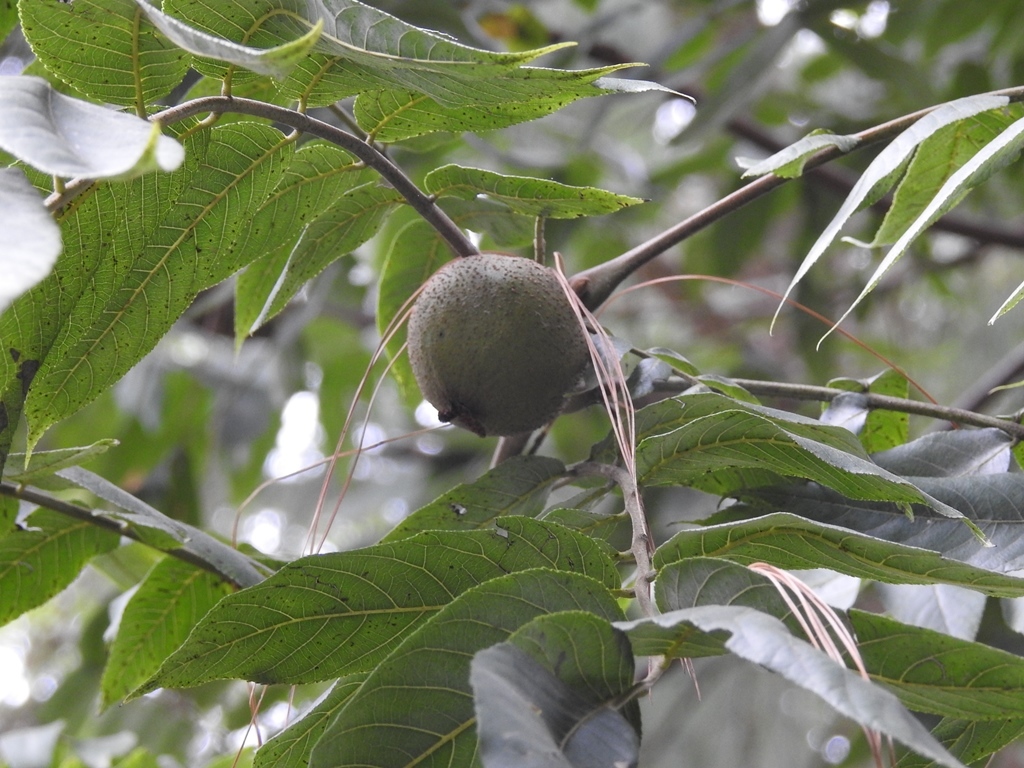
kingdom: Plantae
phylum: Tracheophyta
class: Magnoliopsida
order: Fagales
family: Juglandaceae
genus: Juglans
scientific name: Juglans olanchana
